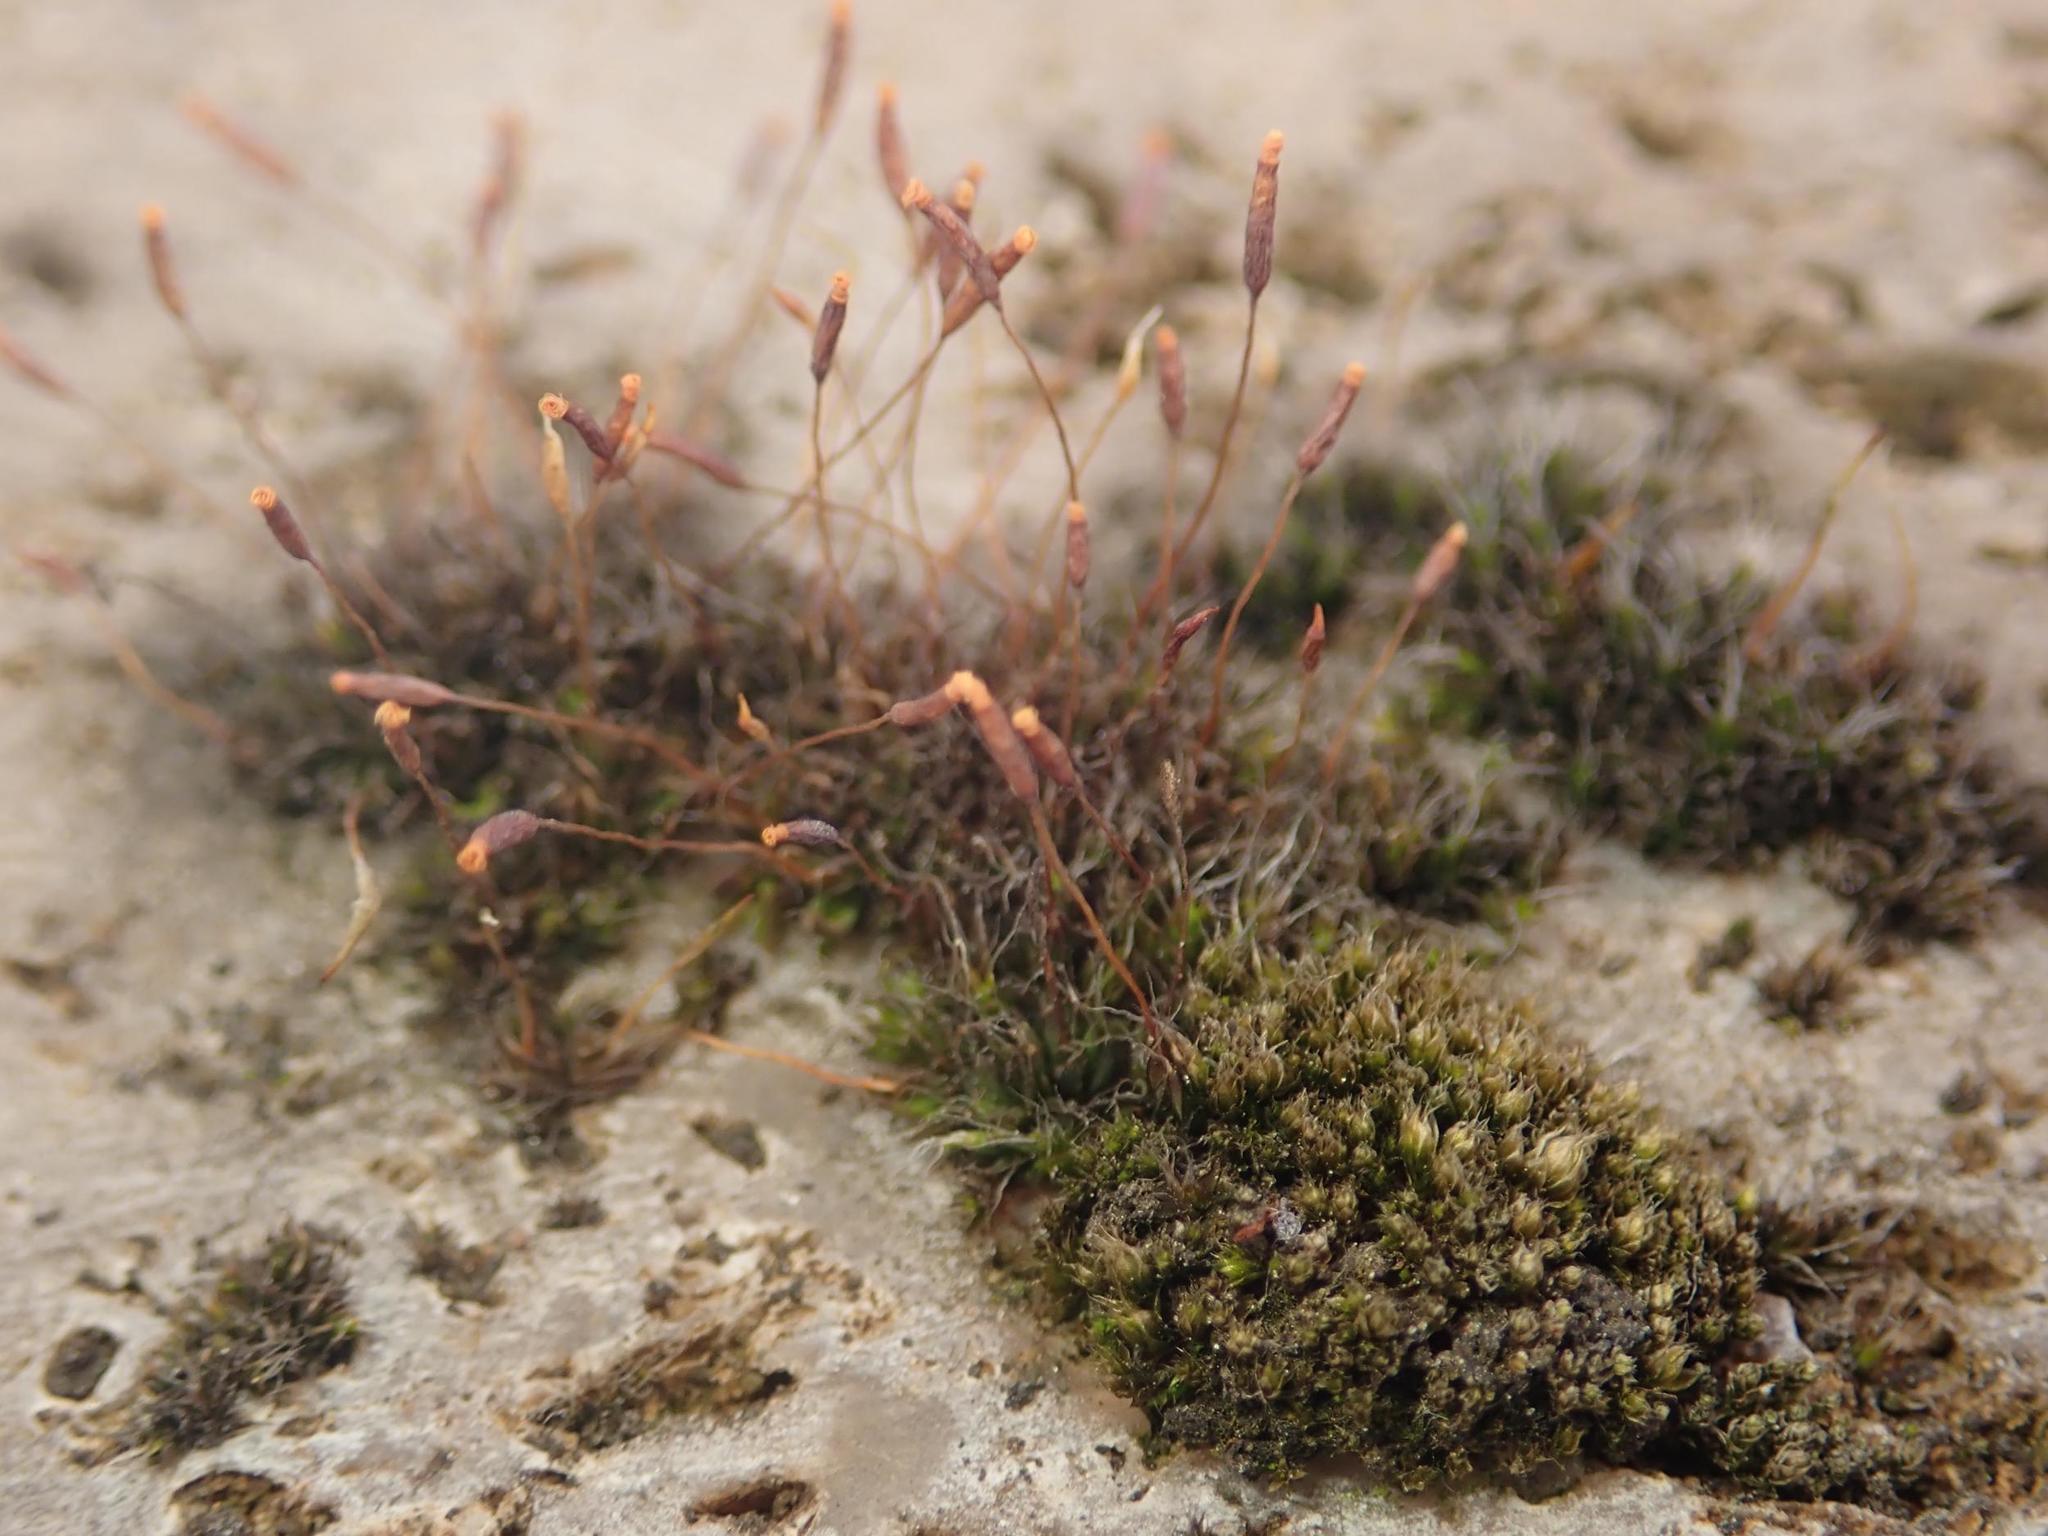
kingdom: Plantae
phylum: Bryophyta
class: Bryopsida
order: Pottiales
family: Pottiaceae
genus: Tortula
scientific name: Tortula muralis
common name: Wall screw-moss
